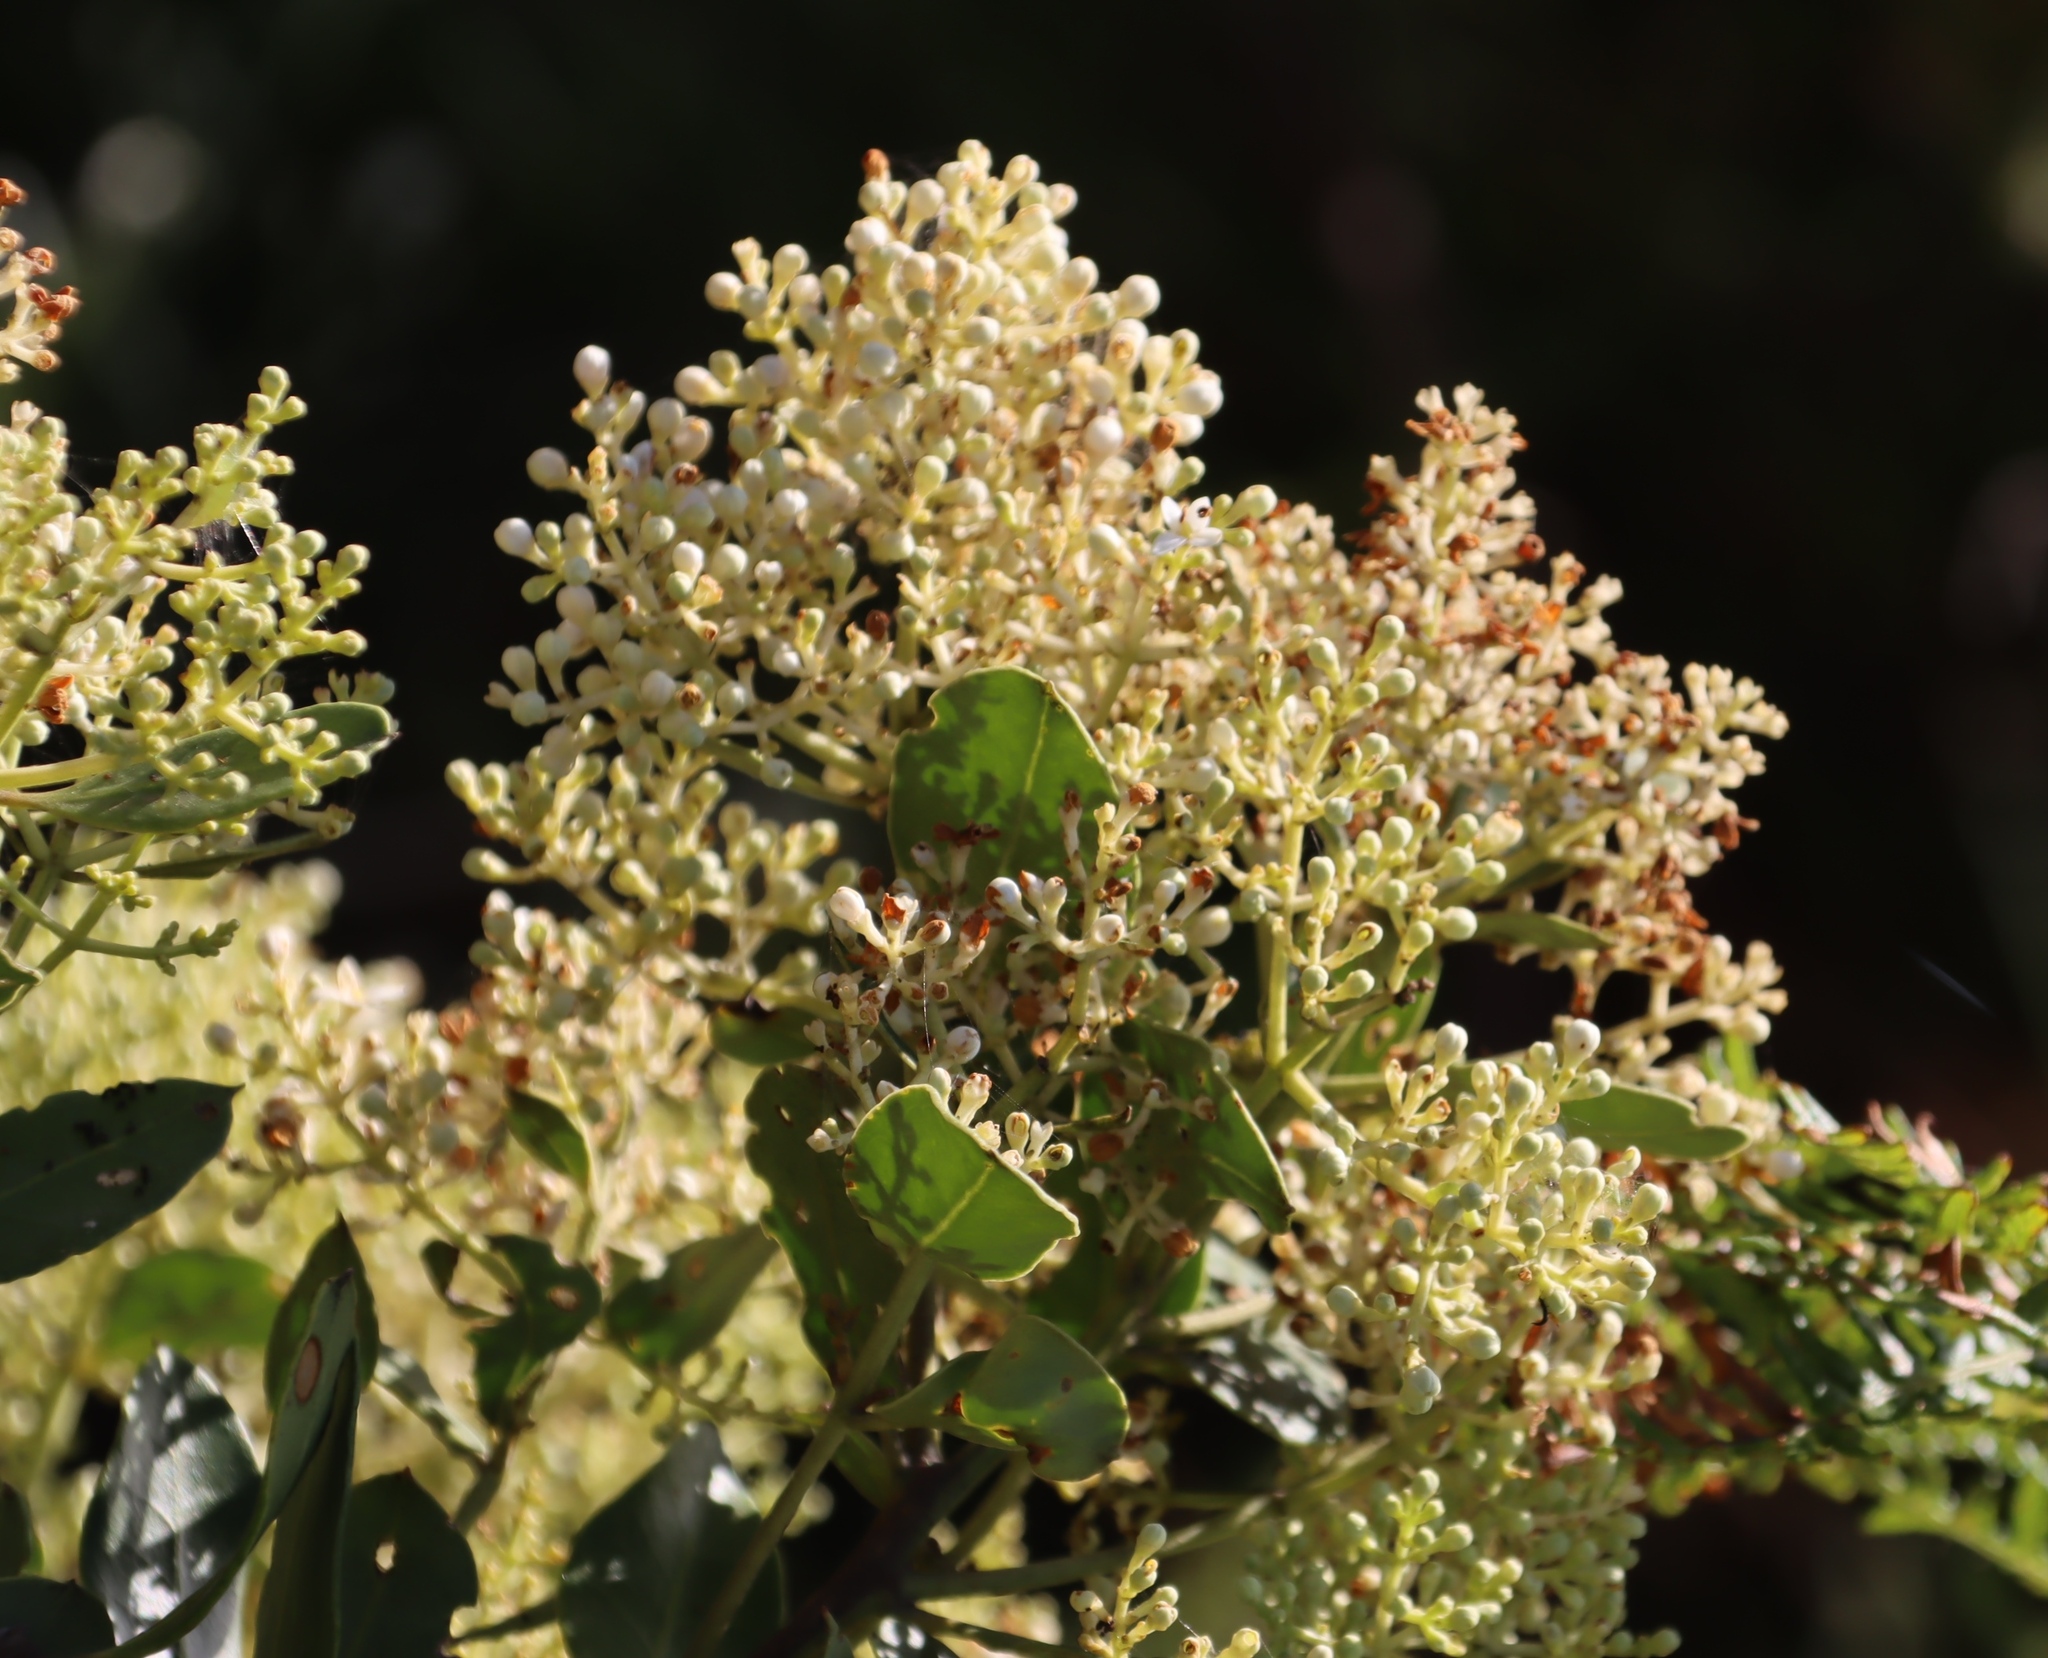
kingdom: Plantae
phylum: Tracheophyta
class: Magnoliopsida
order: Lamiales
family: Oleaceae
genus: Olea
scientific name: Olea capensis
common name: Black ironwood
